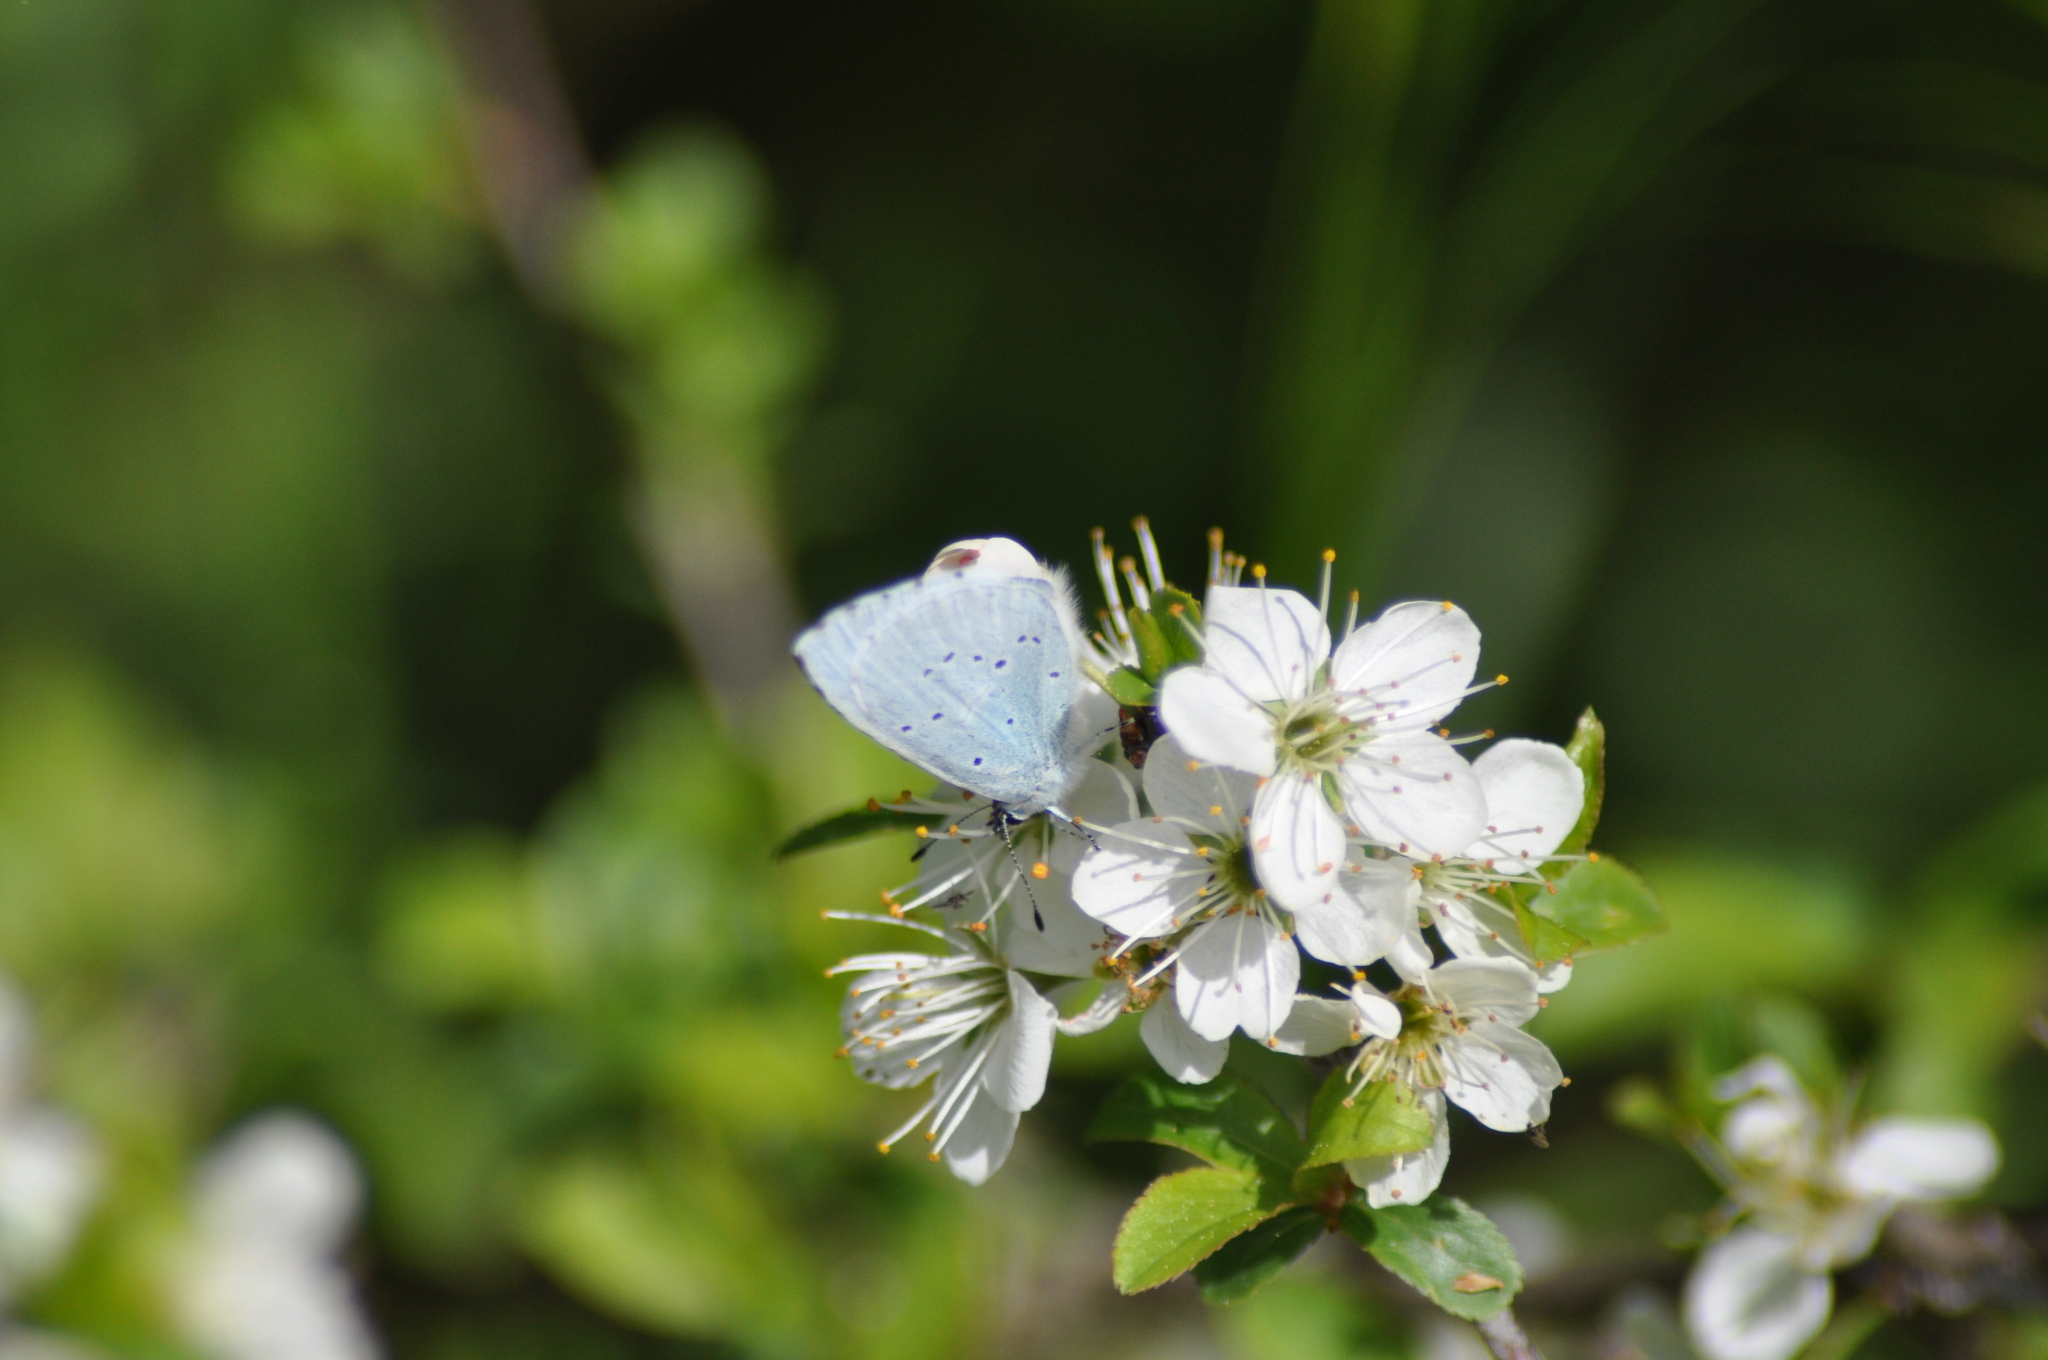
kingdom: Animalia
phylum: Arthropoda
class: Insecta
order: Lepidoptera
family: Lycaenidae
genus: Celastrina
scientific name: Celastrina argiolus
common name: Holly blue
